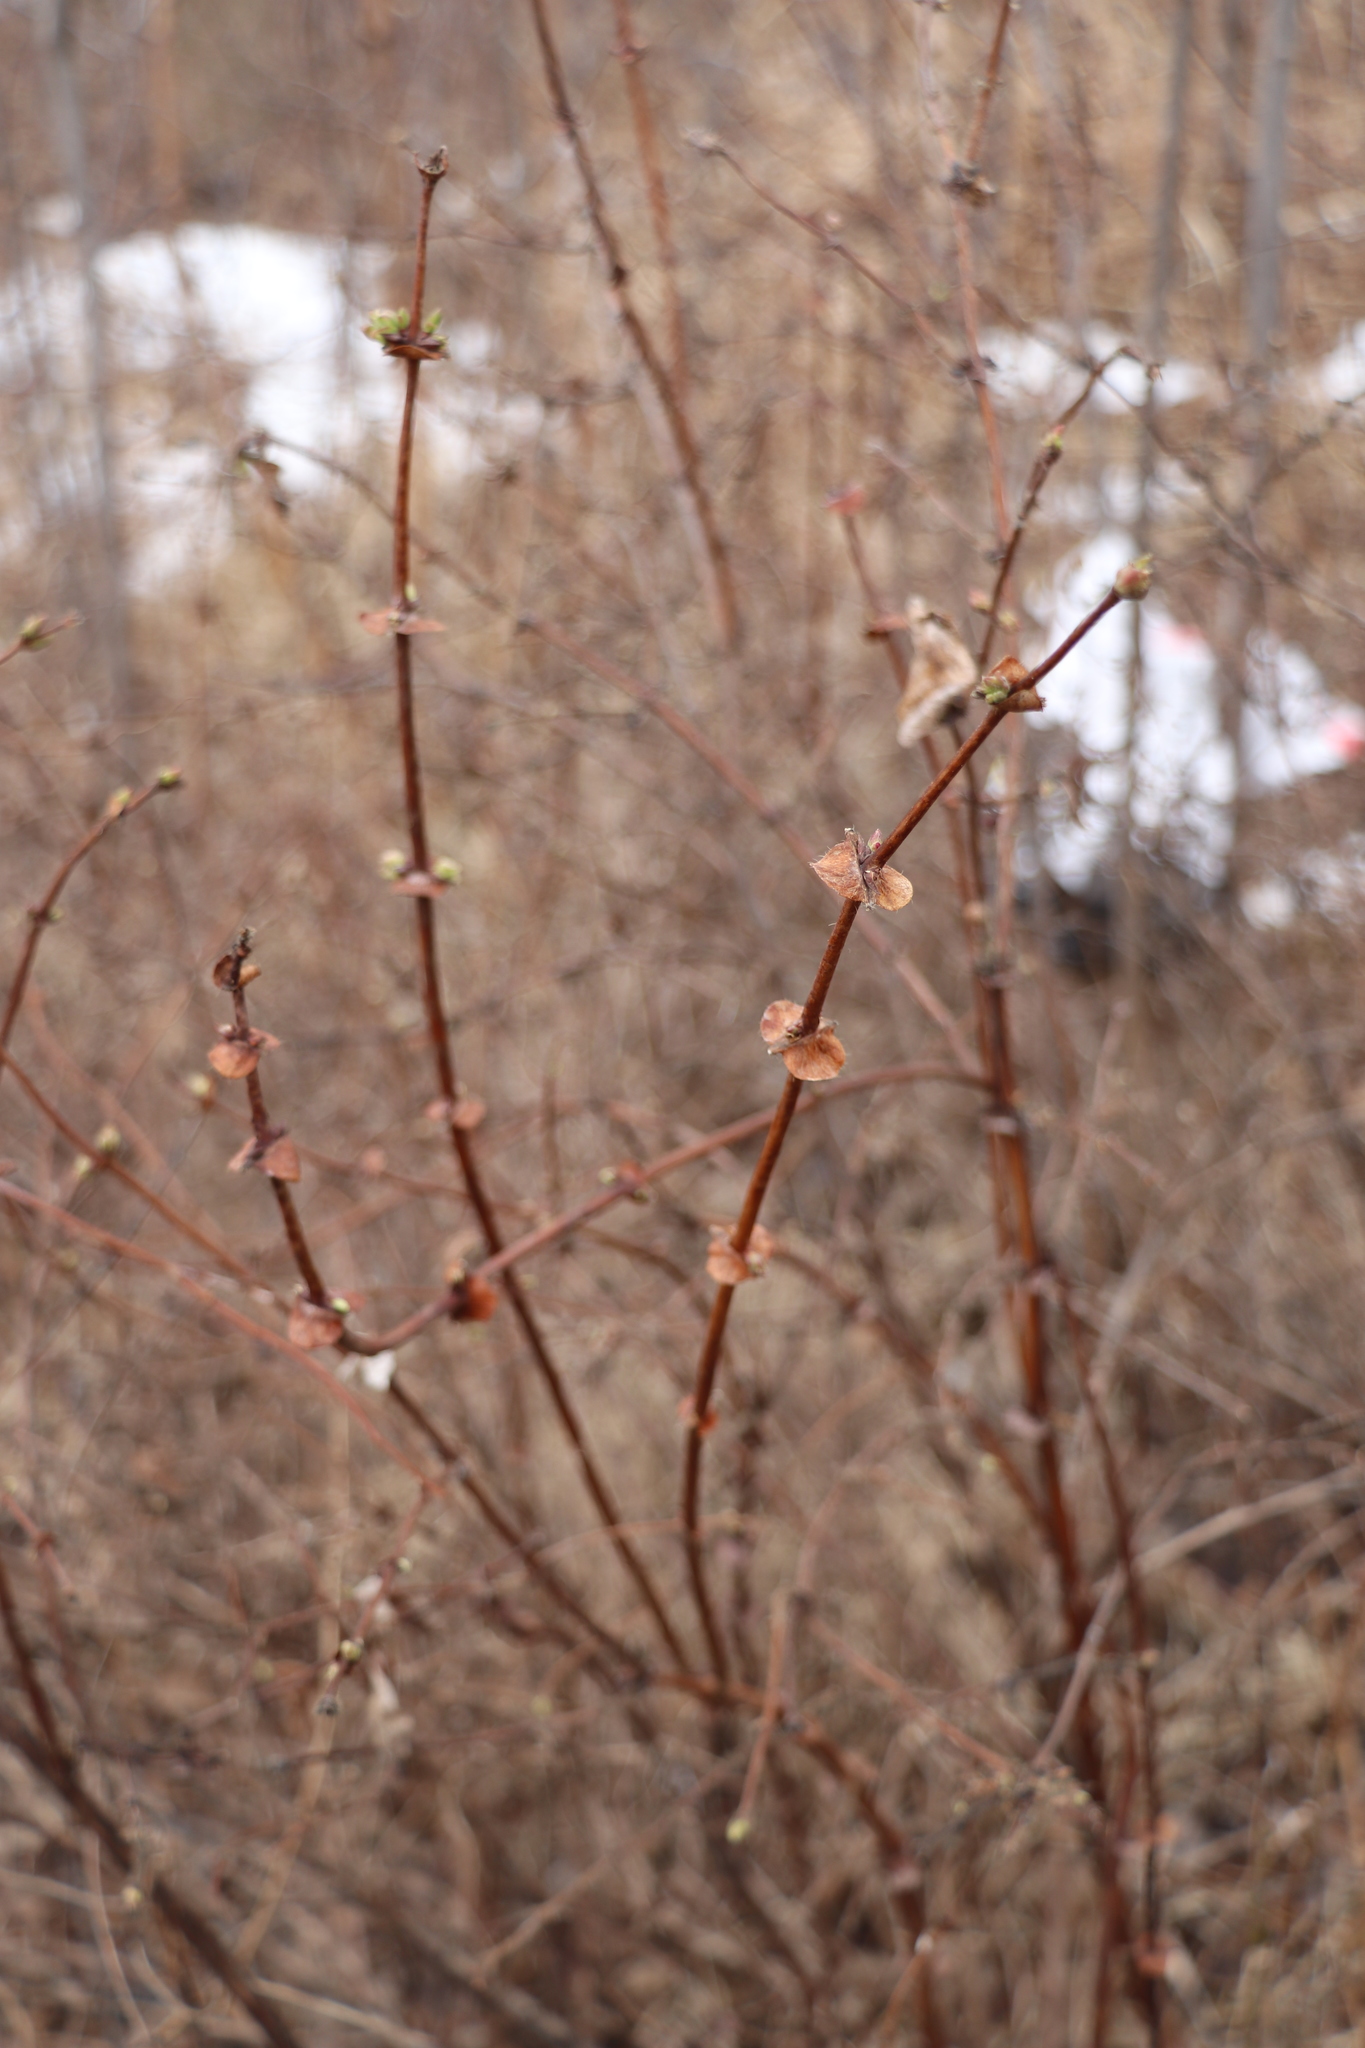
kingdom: Plantae
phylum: Tracheophyta
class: Magnoliopsida
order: Dipsacales
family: Caprifoliaceae
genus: Lonicera
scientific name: Lonicera caerulea
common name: Blue honeysuckle
